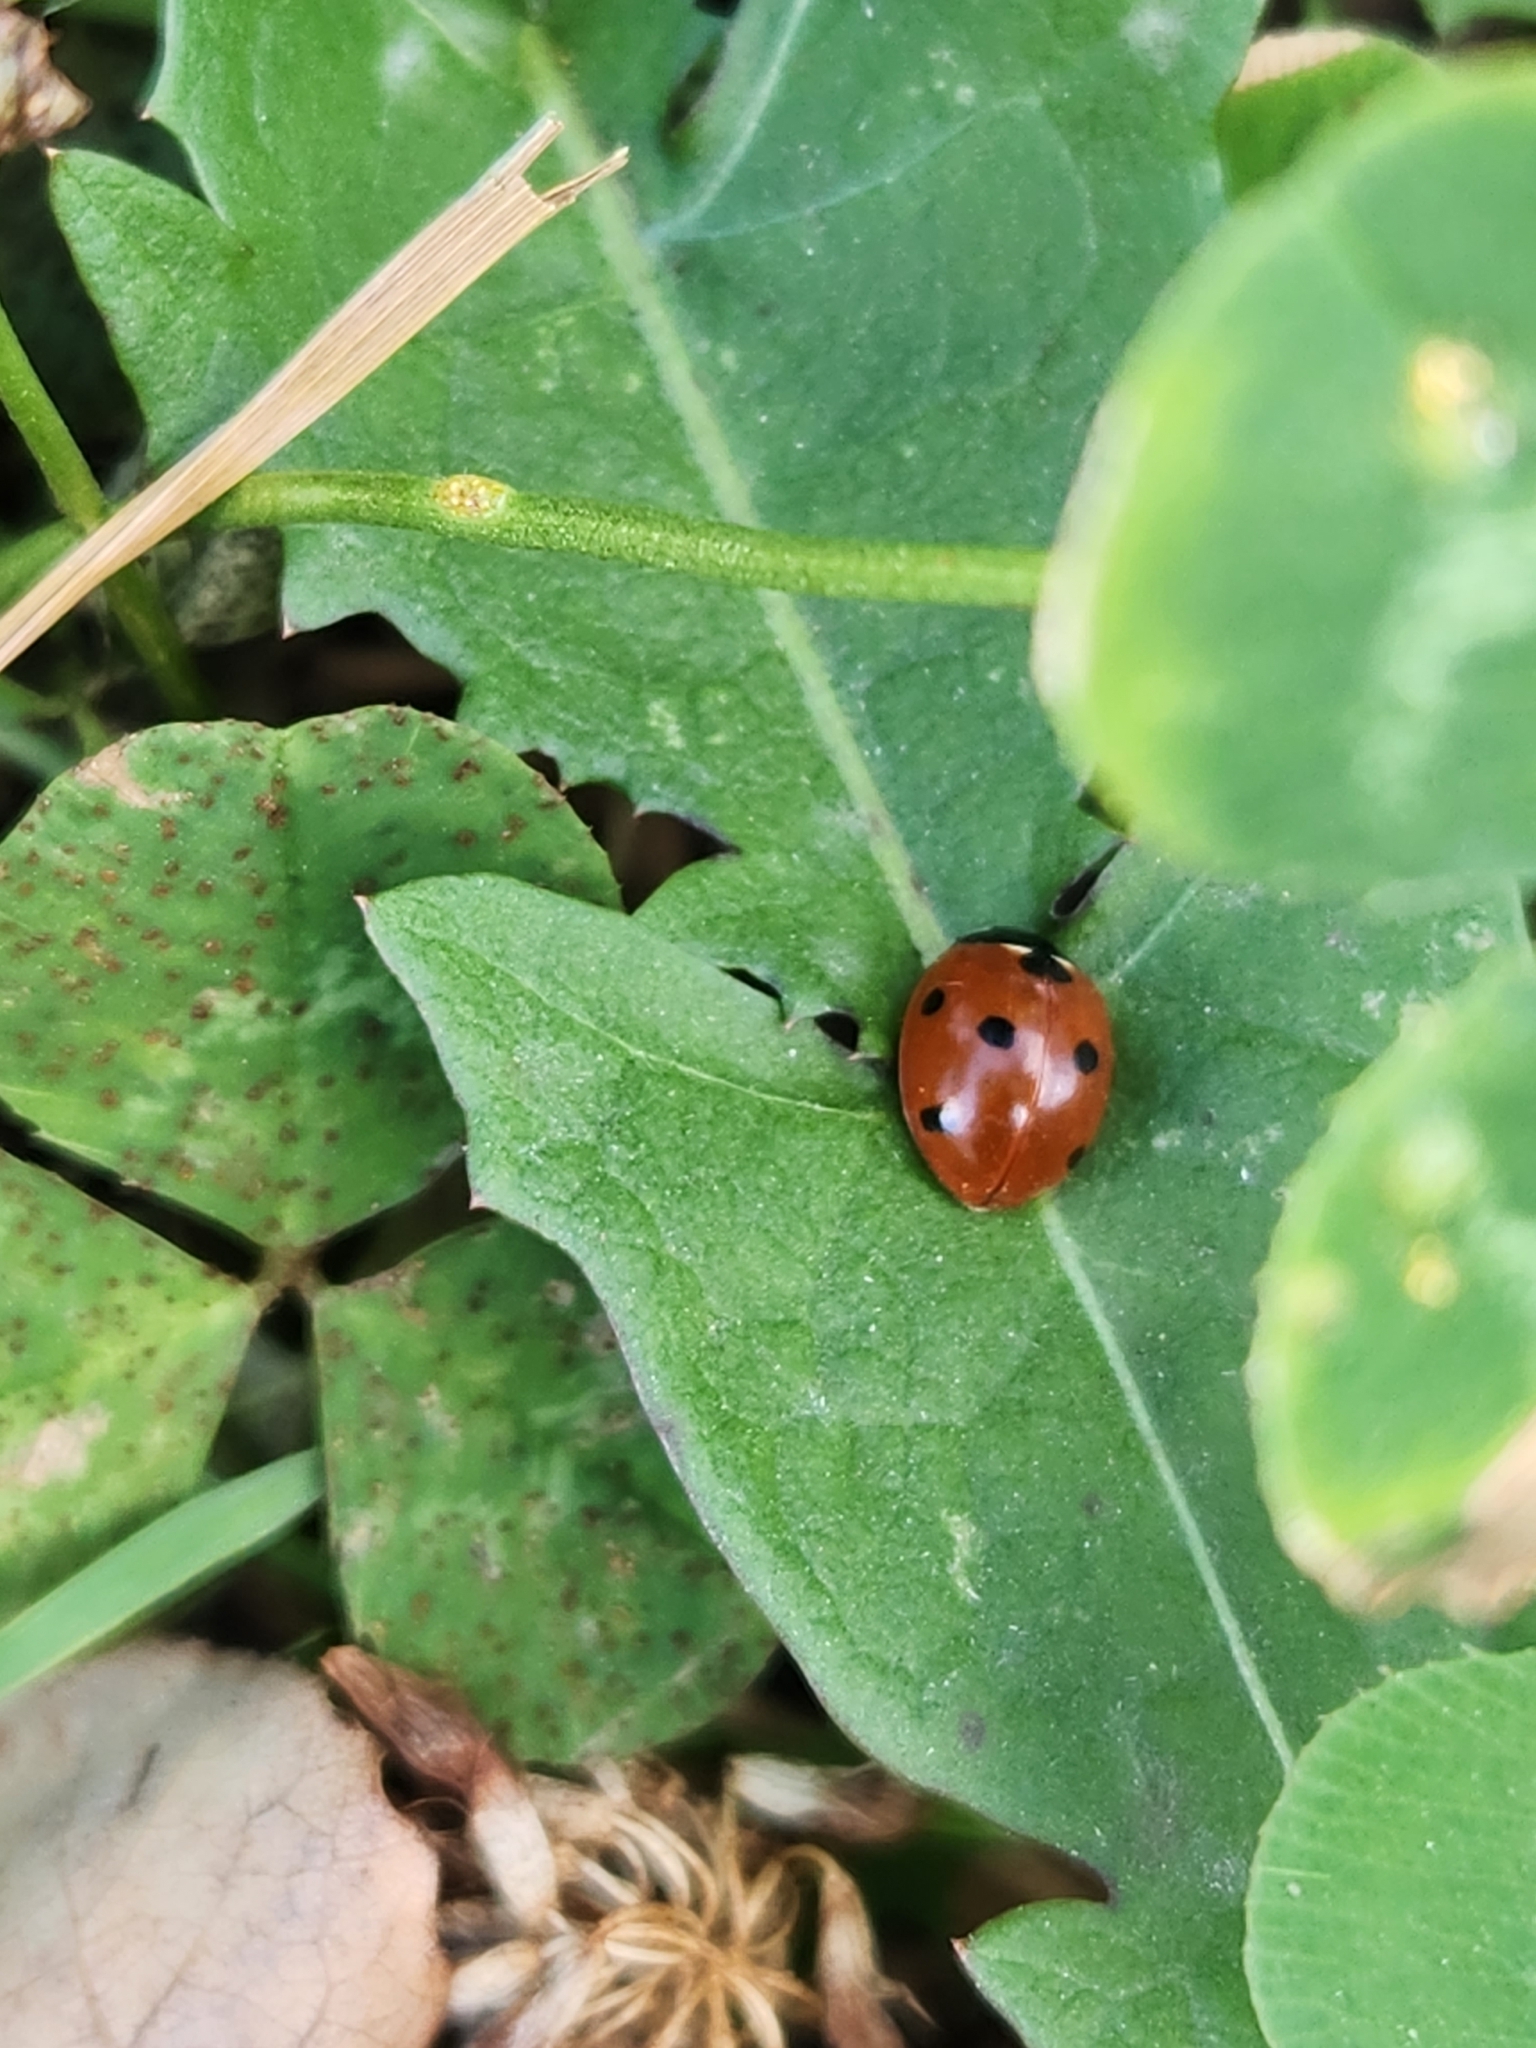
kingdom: Animalia
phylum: Arthropoda
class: Insecta
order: Coleoptera
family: Coccinellidae
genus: Coccinella
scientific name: Coccinella septempunctata
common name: Sevenspotted lady beetle
